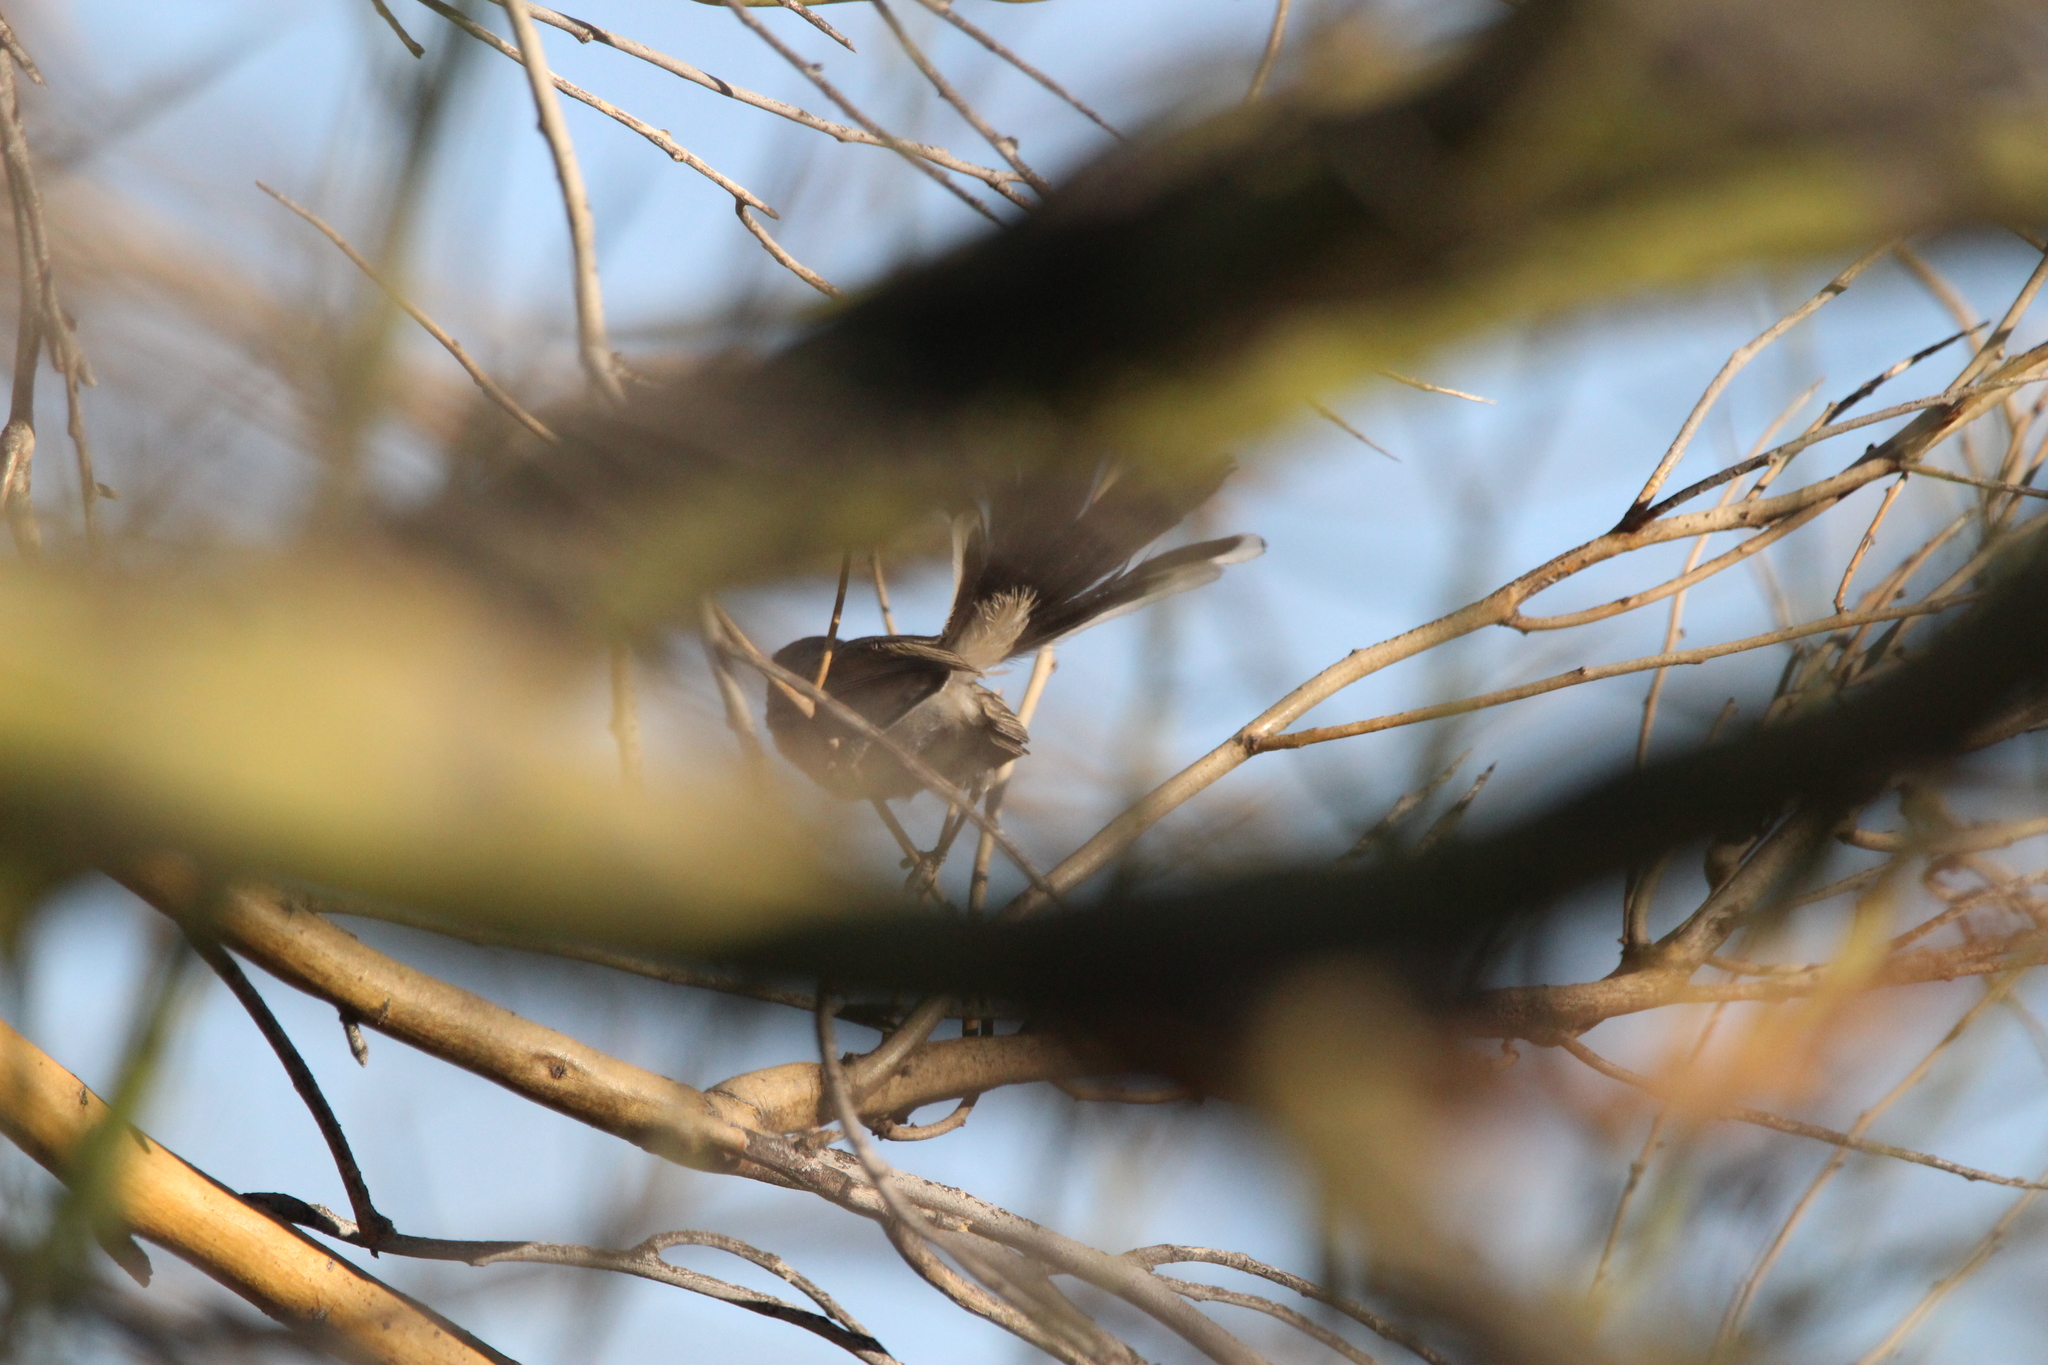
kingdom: Animalia
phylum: Chordata
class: Aves
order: Passeriformes
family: Polioptilidae
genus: Polioptila
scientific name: Polioptila melanura
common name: Black-tailed gnatcatcher
